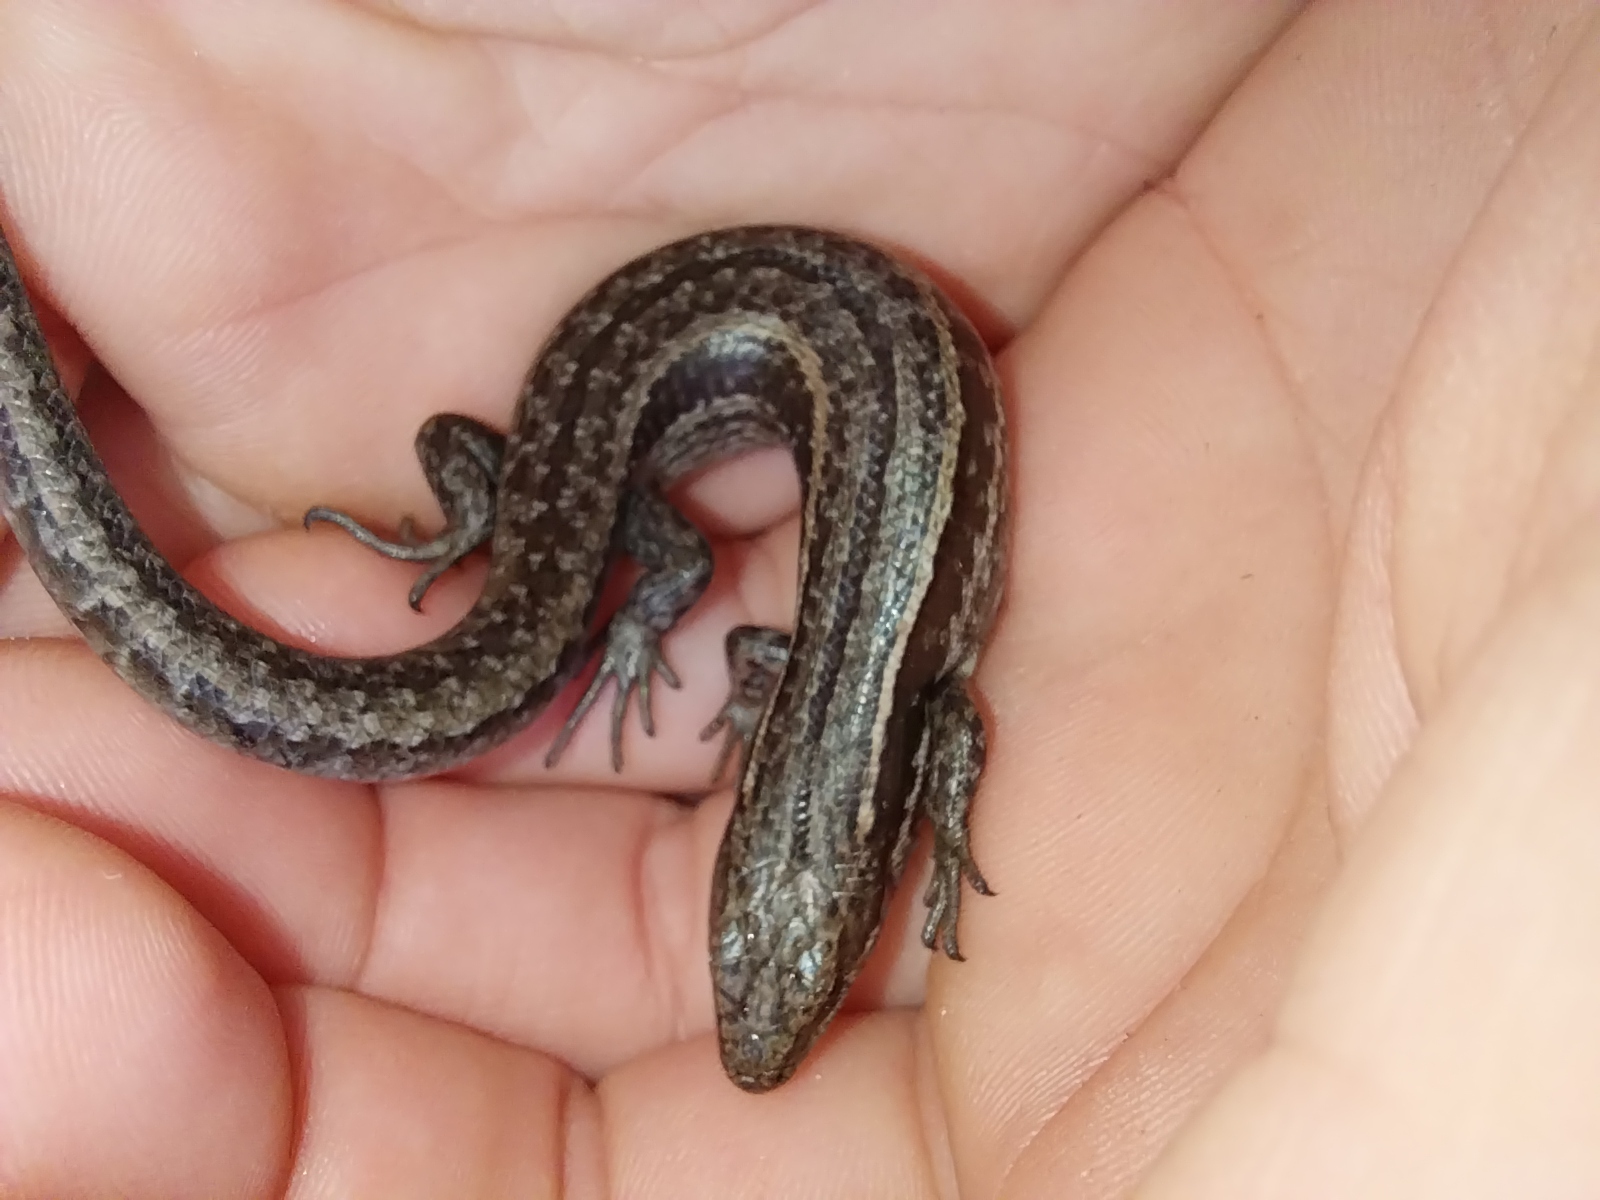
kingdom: Animalia
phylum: Chordata
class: Squamata
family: Scincidae
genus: Oligosoma
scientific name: Oligosoma maccanni
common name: Mccann’s skink
